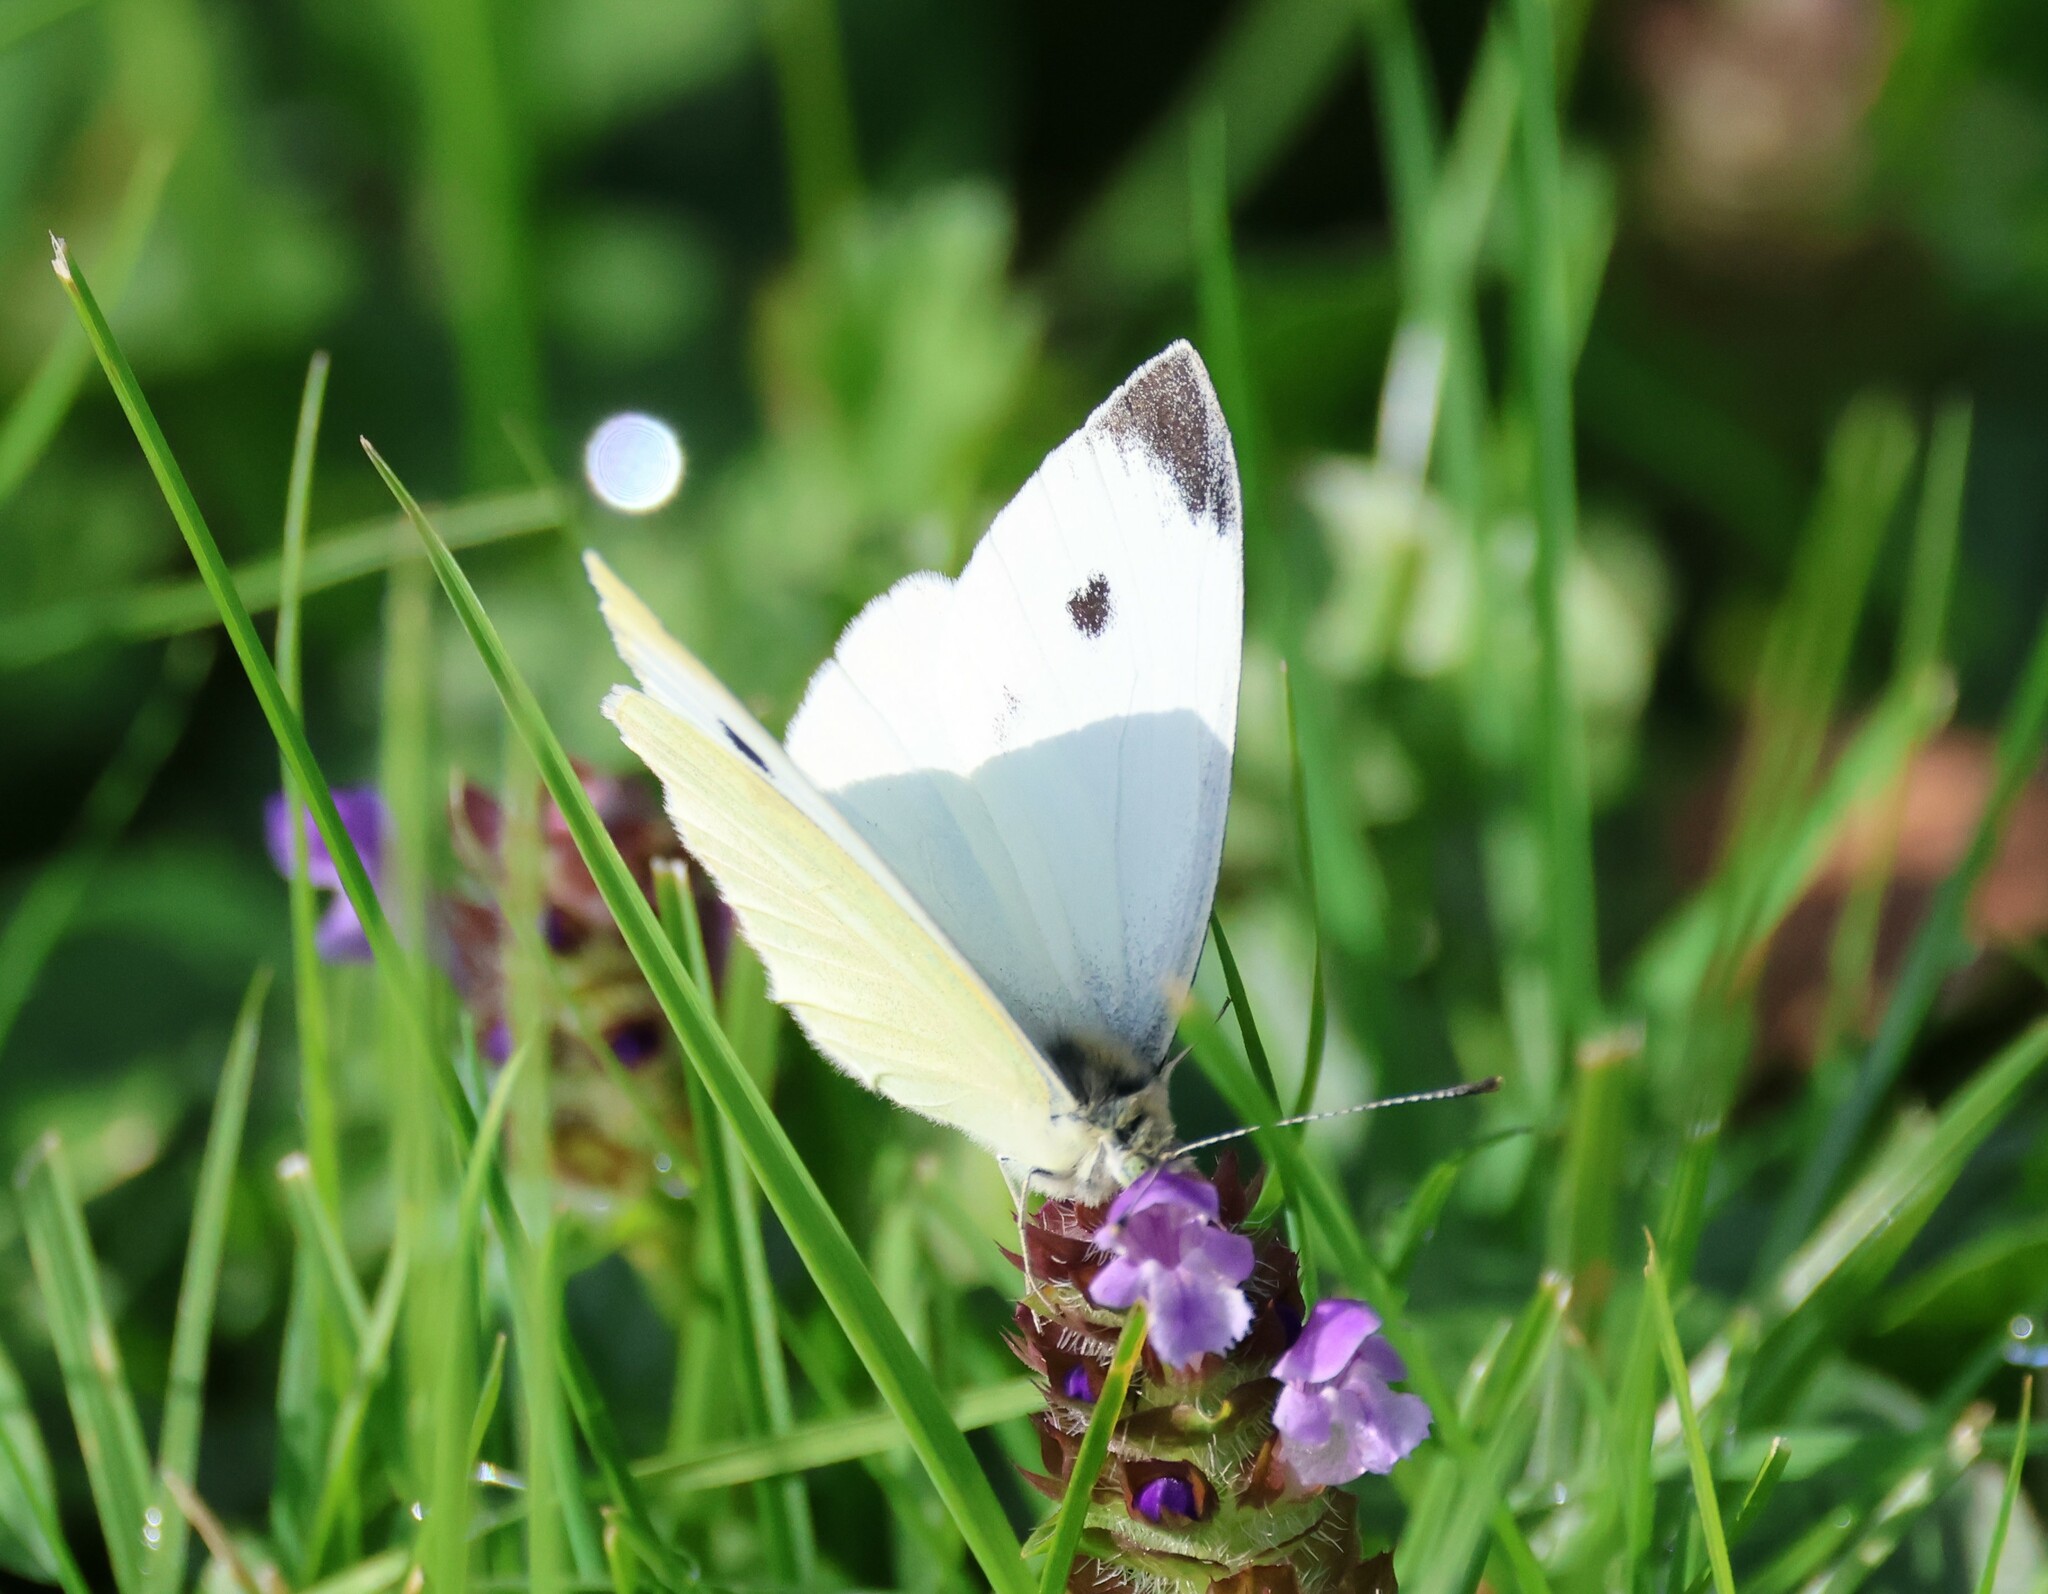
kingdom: Animalia
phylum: Arthropoda
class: Insecta
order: Lepidoptera
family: Pieridae
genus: Pieris
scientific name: Pieris rapae
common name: Small white
